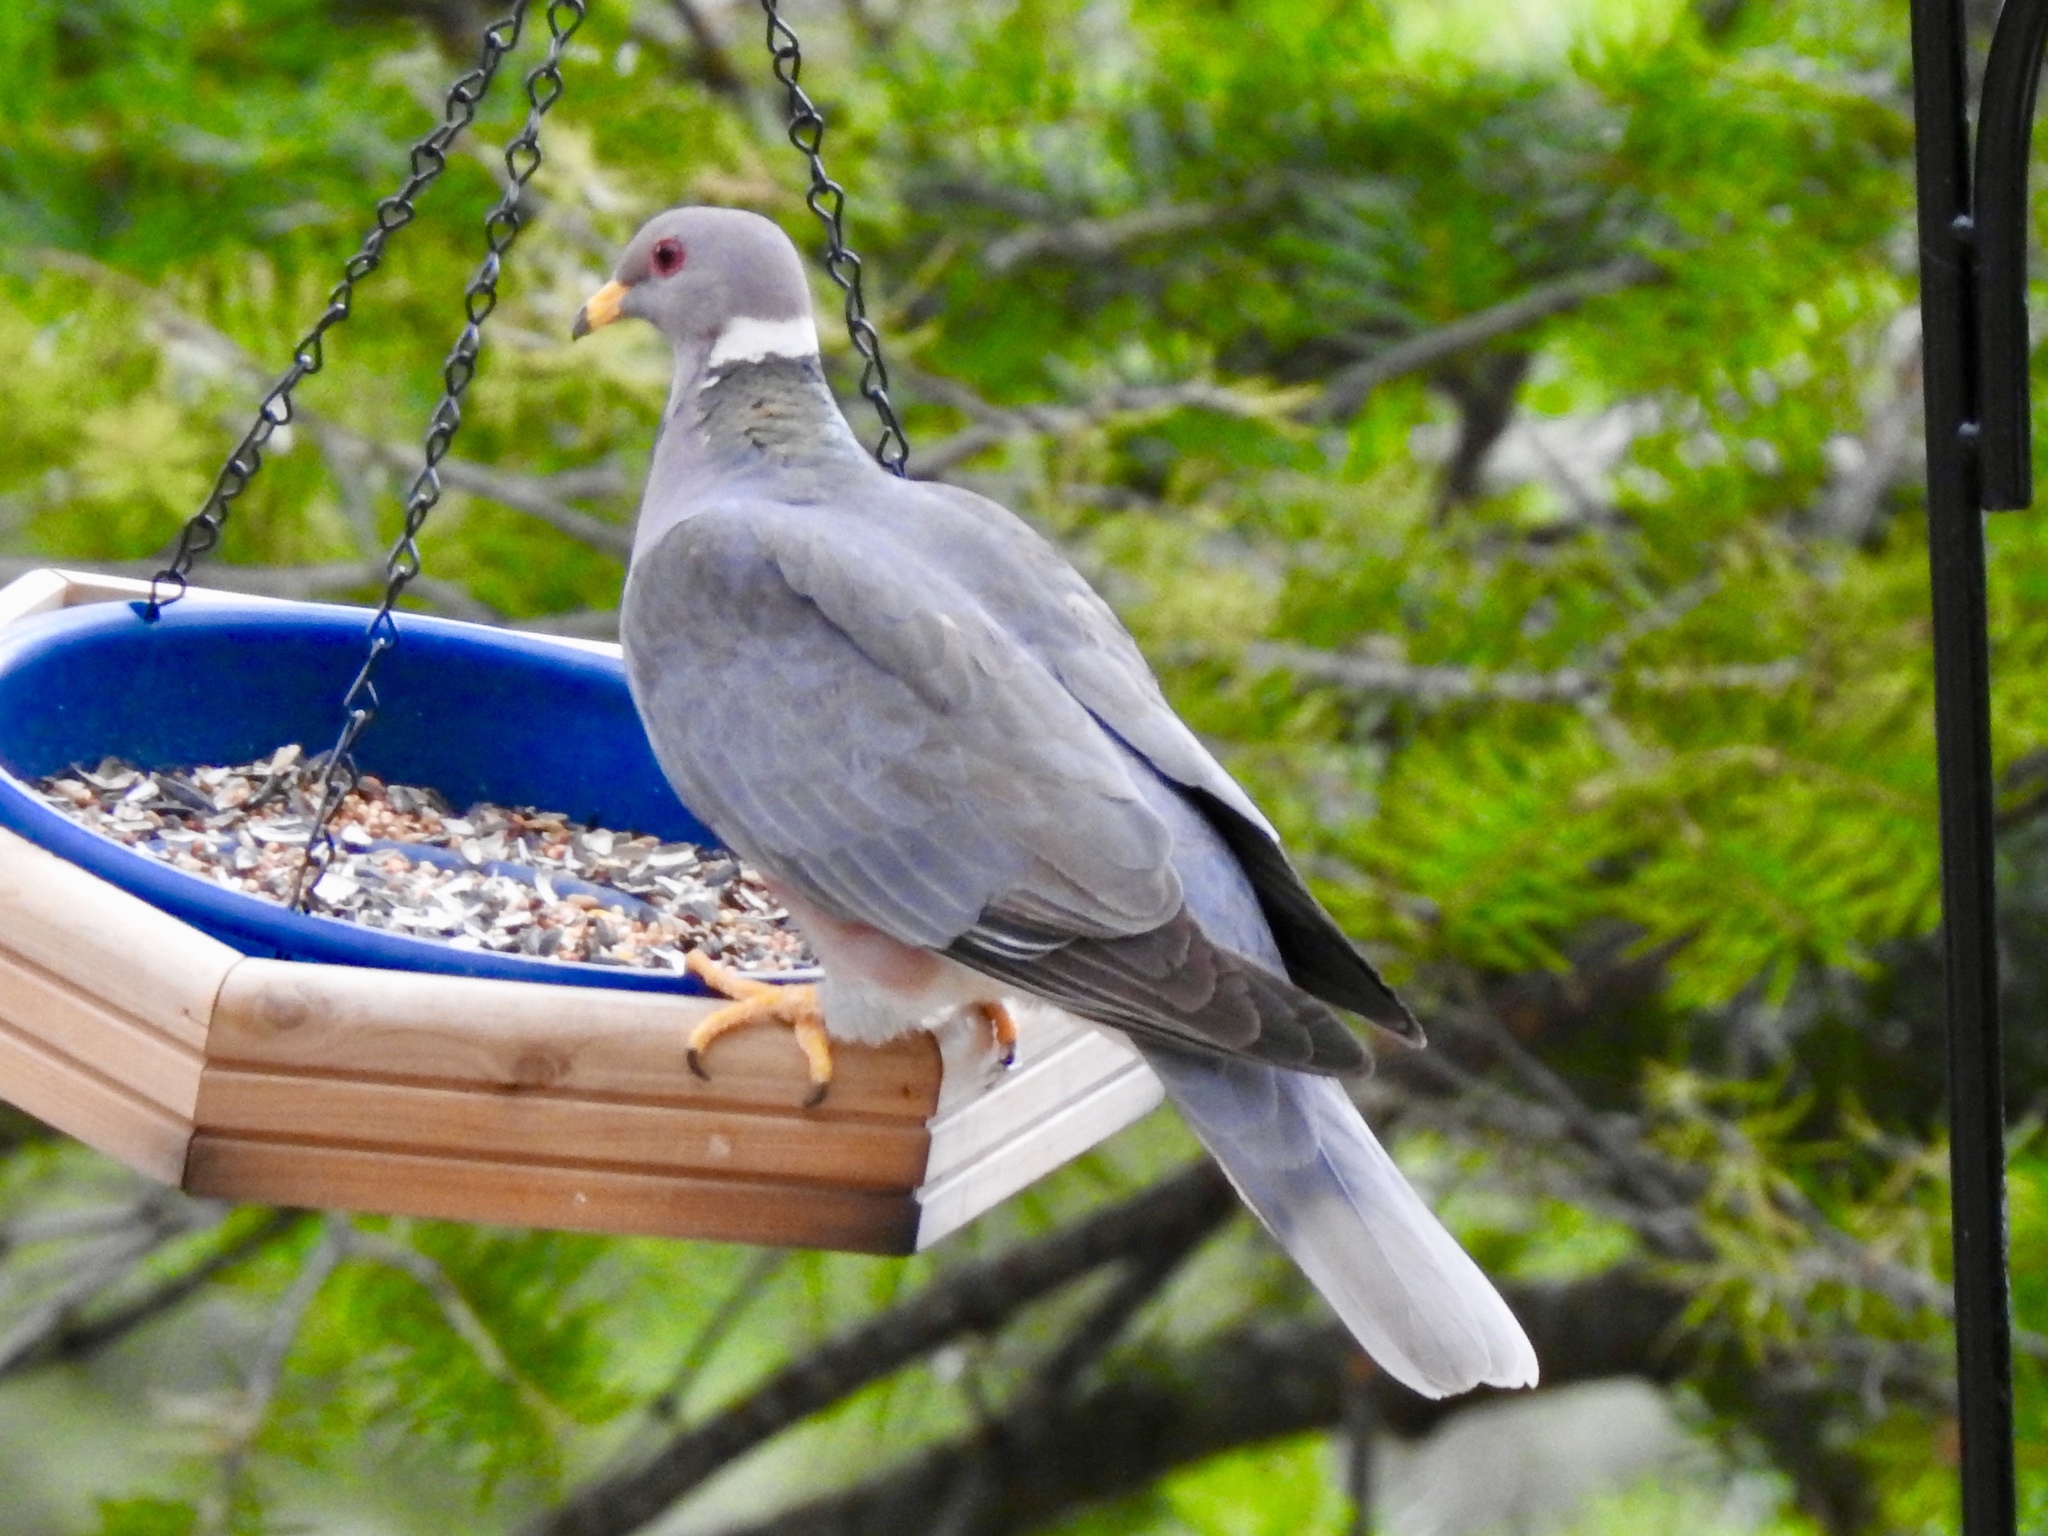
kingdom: Animalia
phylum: Chordata
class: Aves
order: Columbiformes
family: Columbidae
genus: Patagioenas
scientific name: Patagioenas fasciata
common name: Band-tailed pigeon
